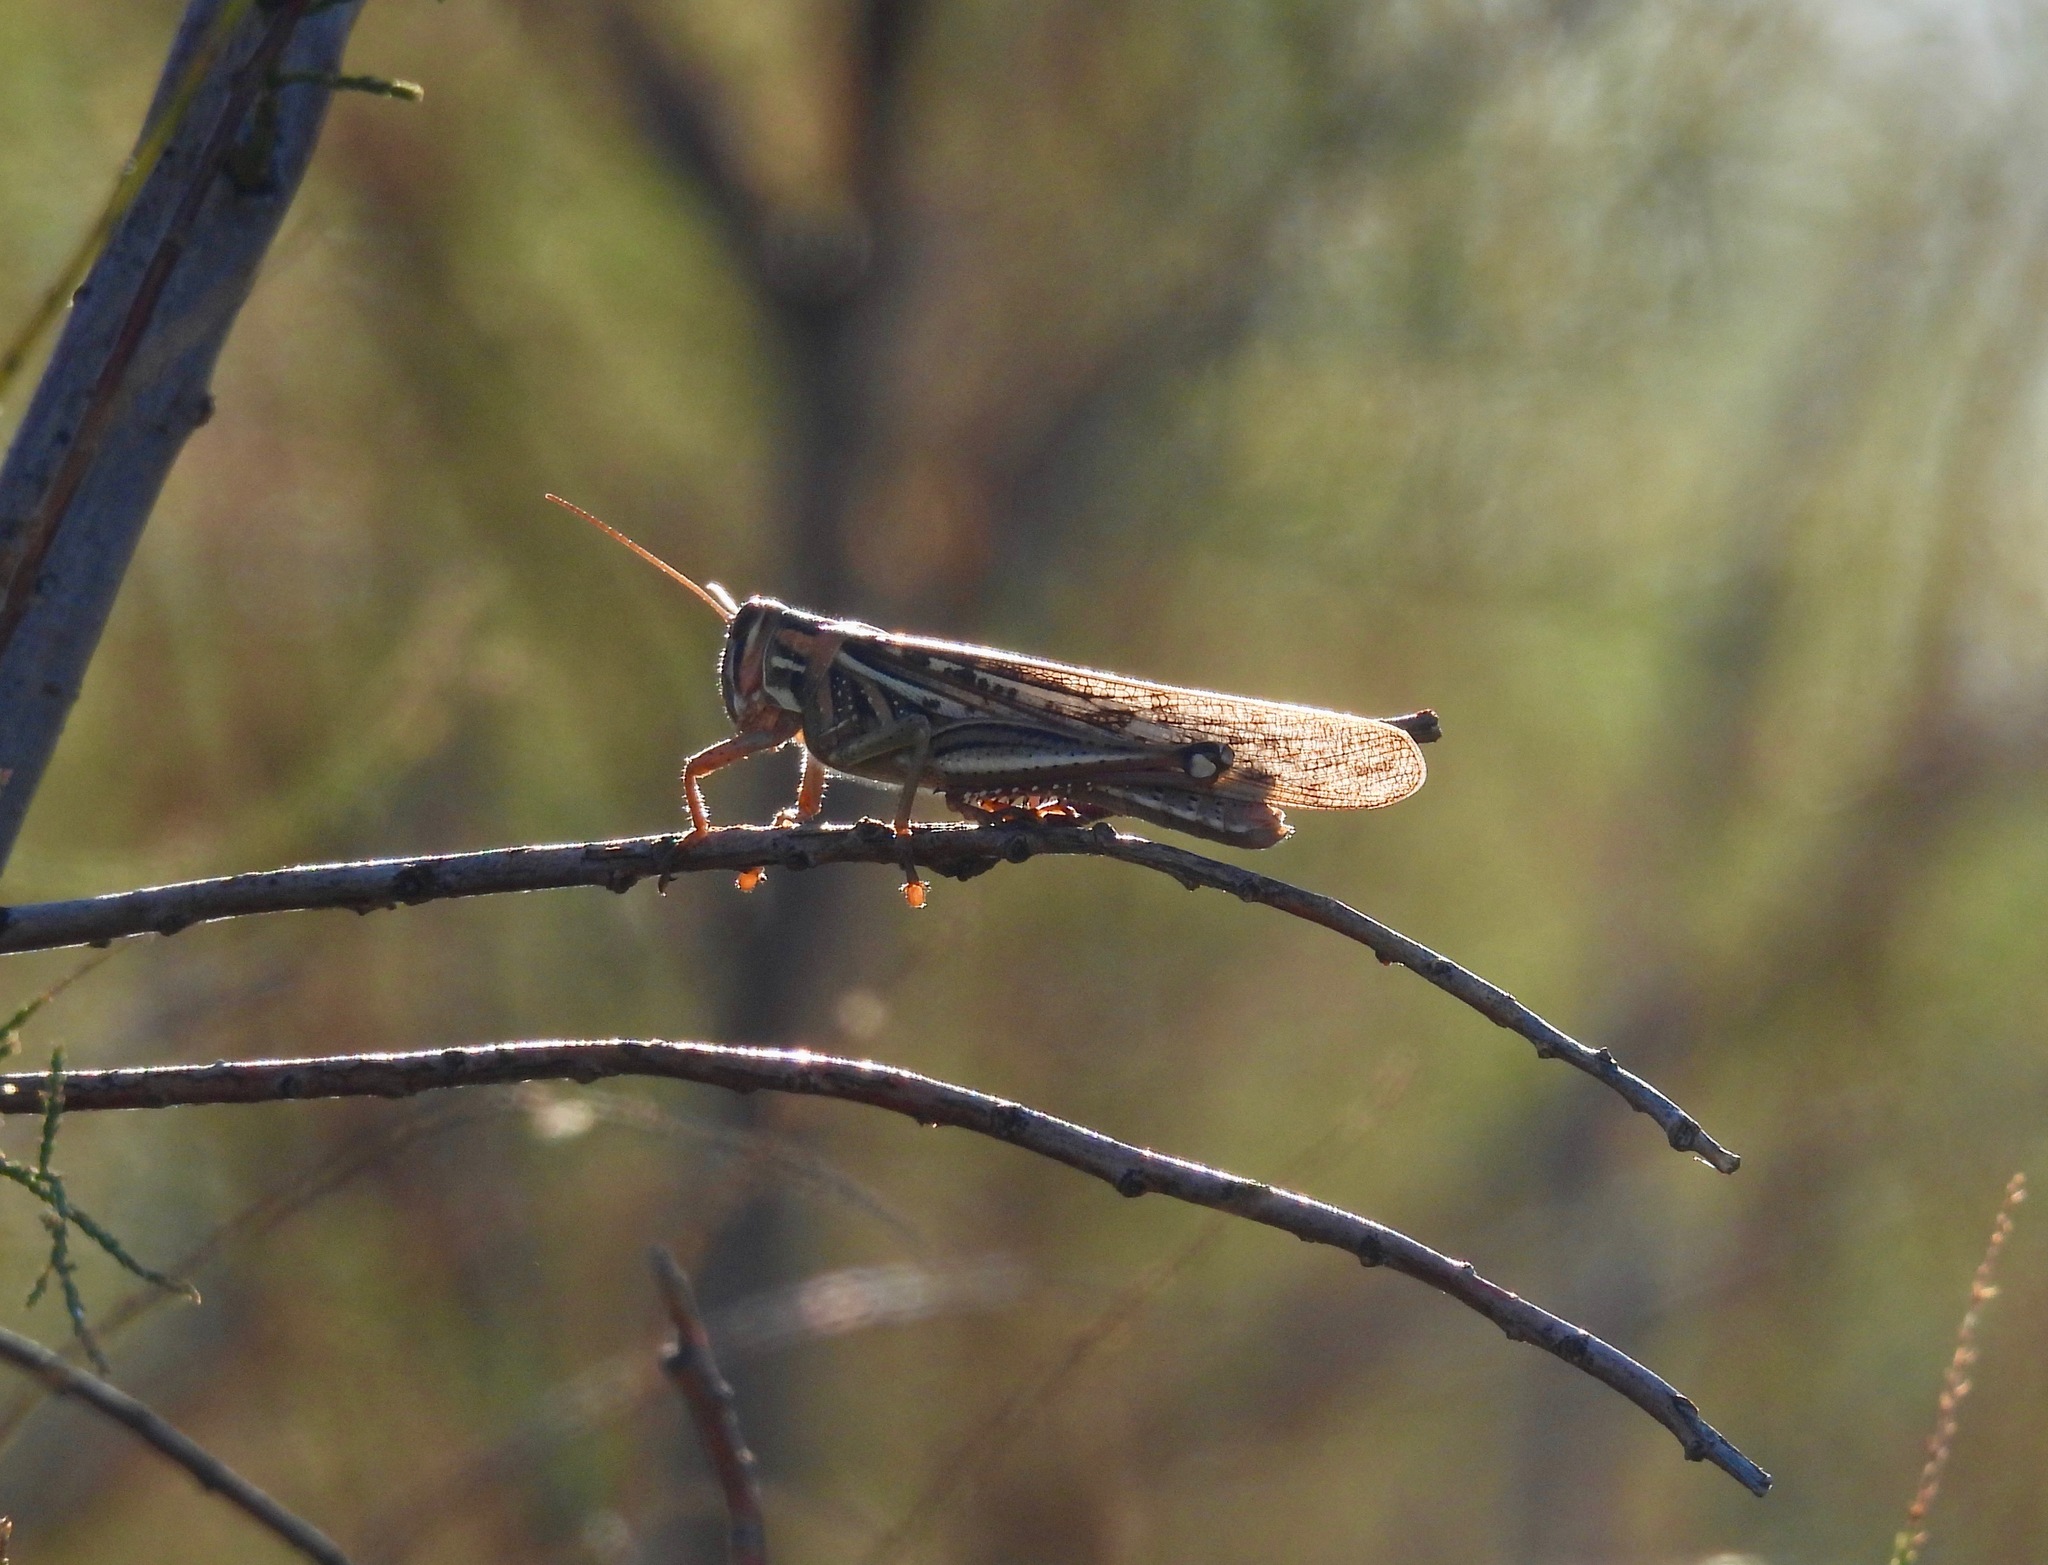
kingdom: Animalia
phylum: Arthropoda
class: Insecta
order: Orthoptera
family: Acrididae
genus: Schistocerca
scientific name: Schistocerca americana
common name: American bird locust
